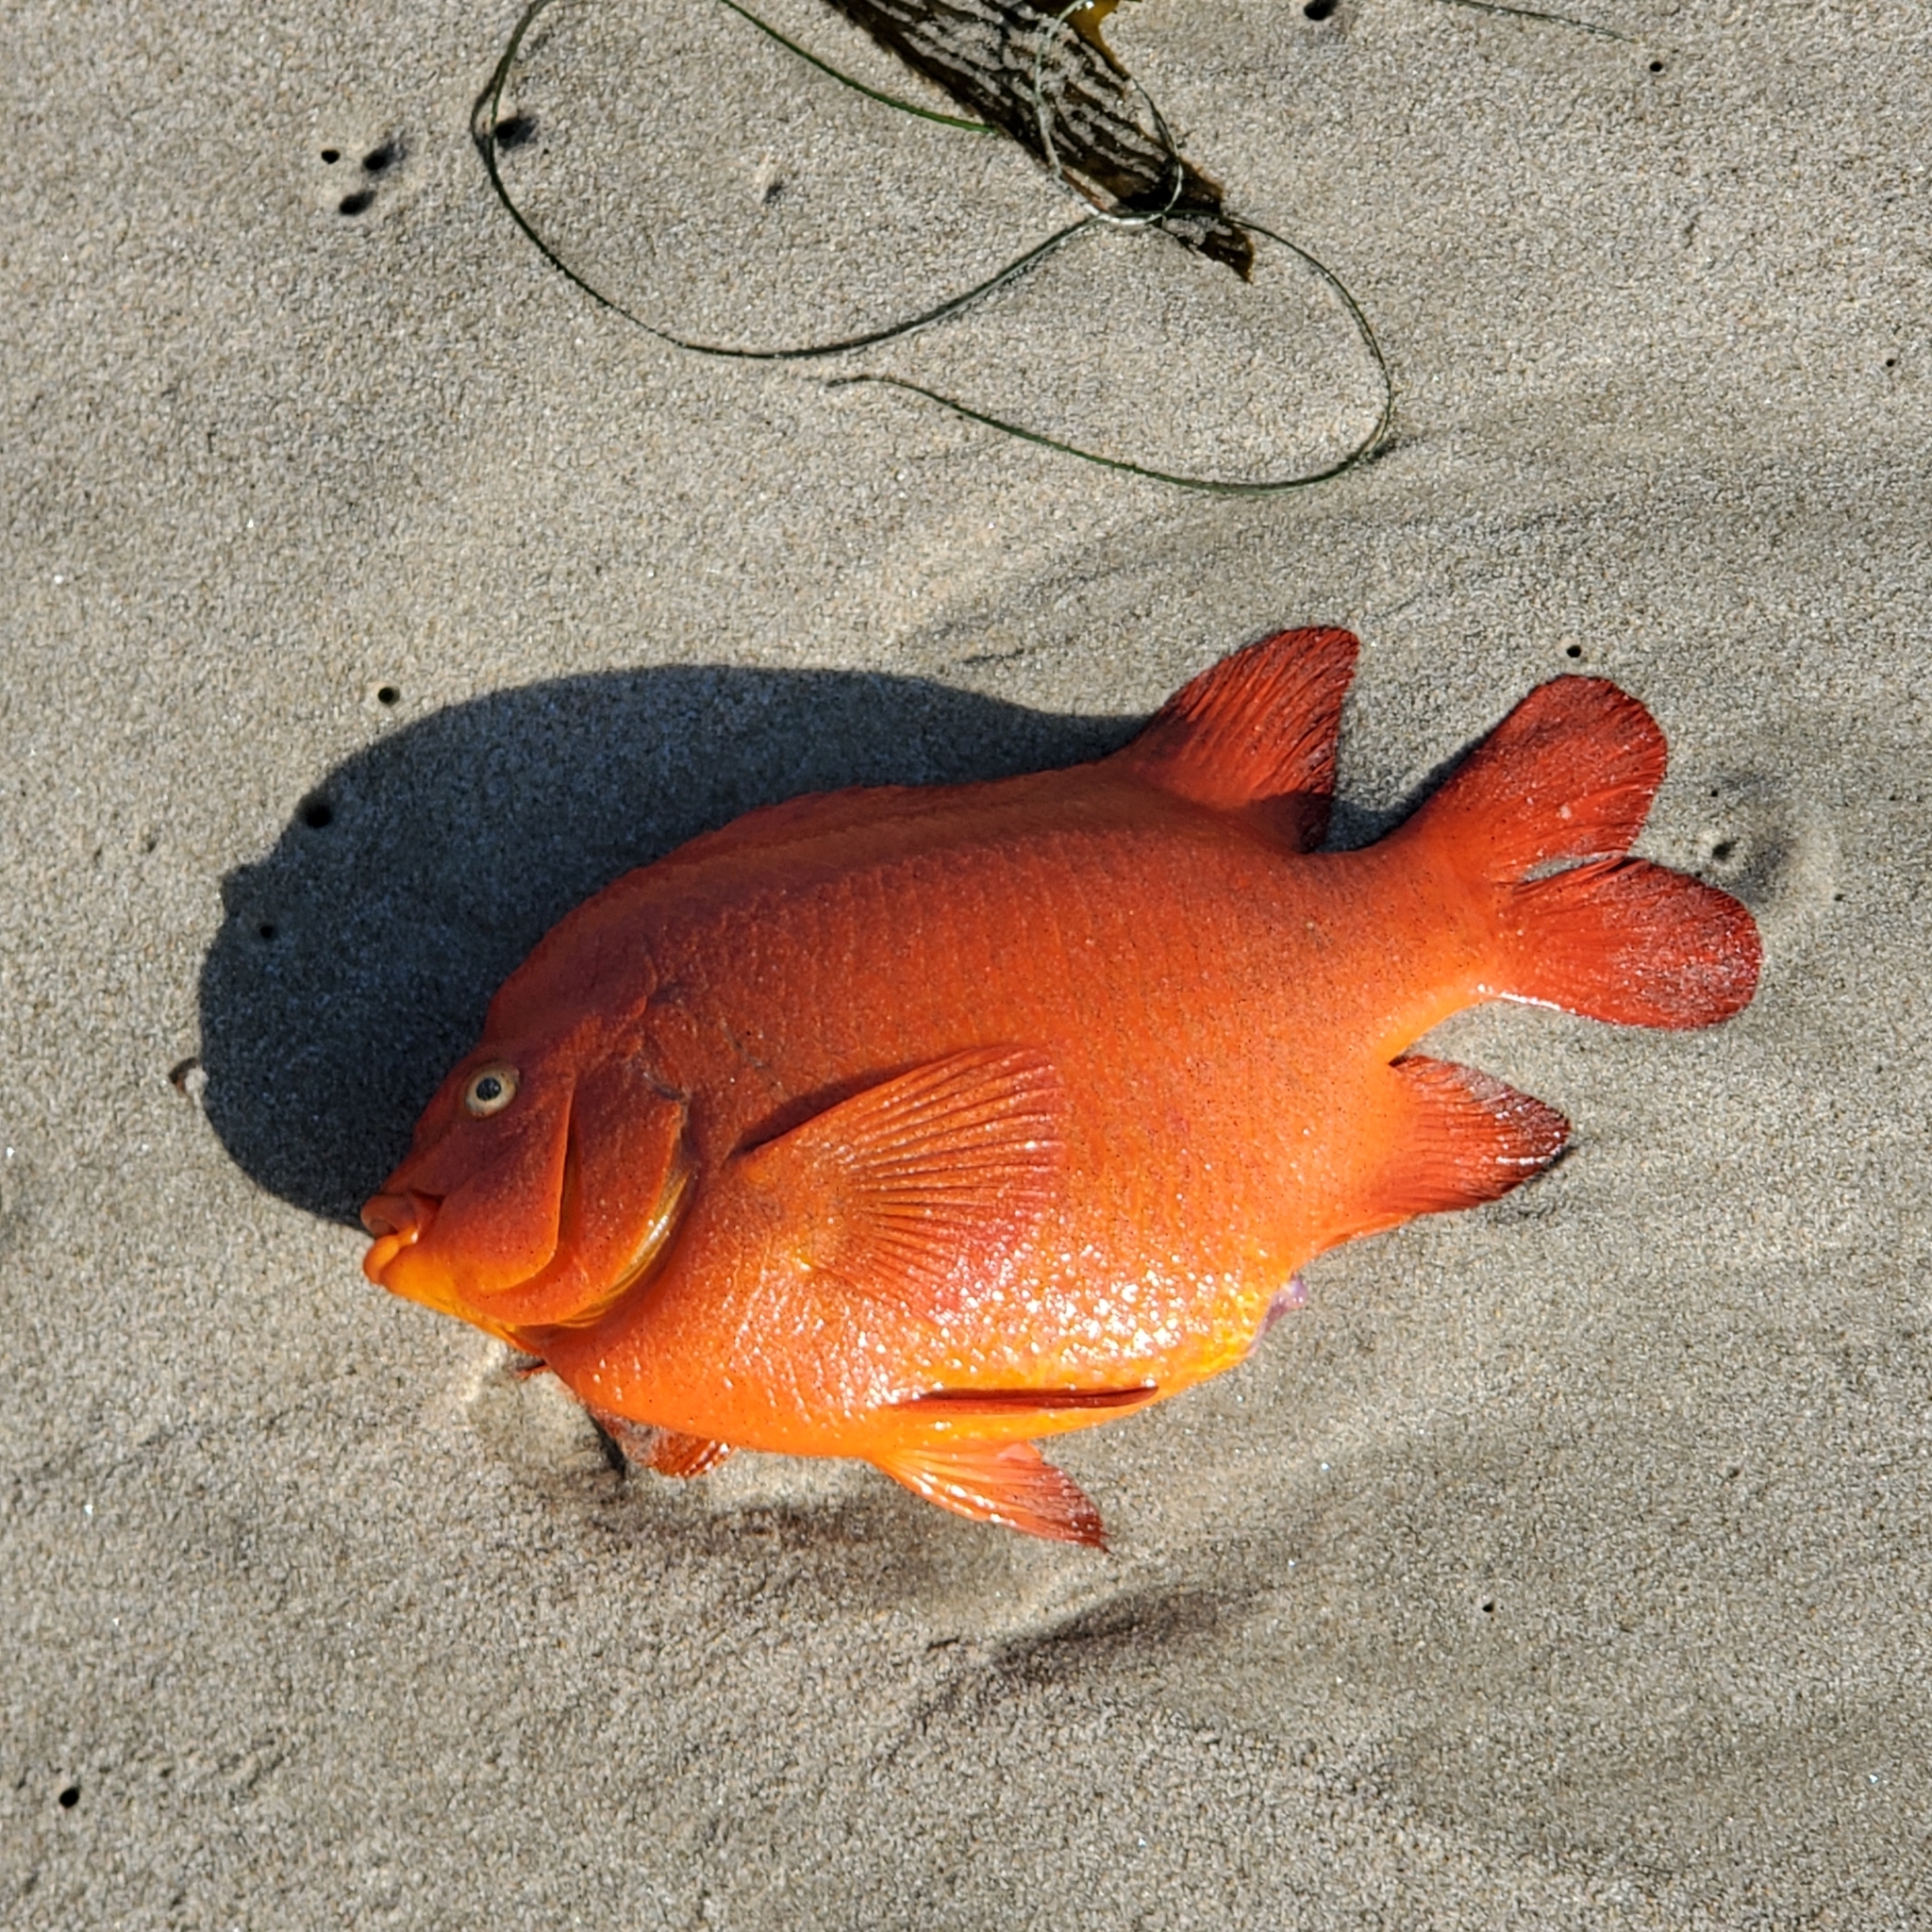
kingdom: Animalia
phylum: Chordata
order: Perciformes
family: Pomacentridae
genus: Hypsypops
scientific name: Hypsypops rubicundus
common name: Garibaldi
